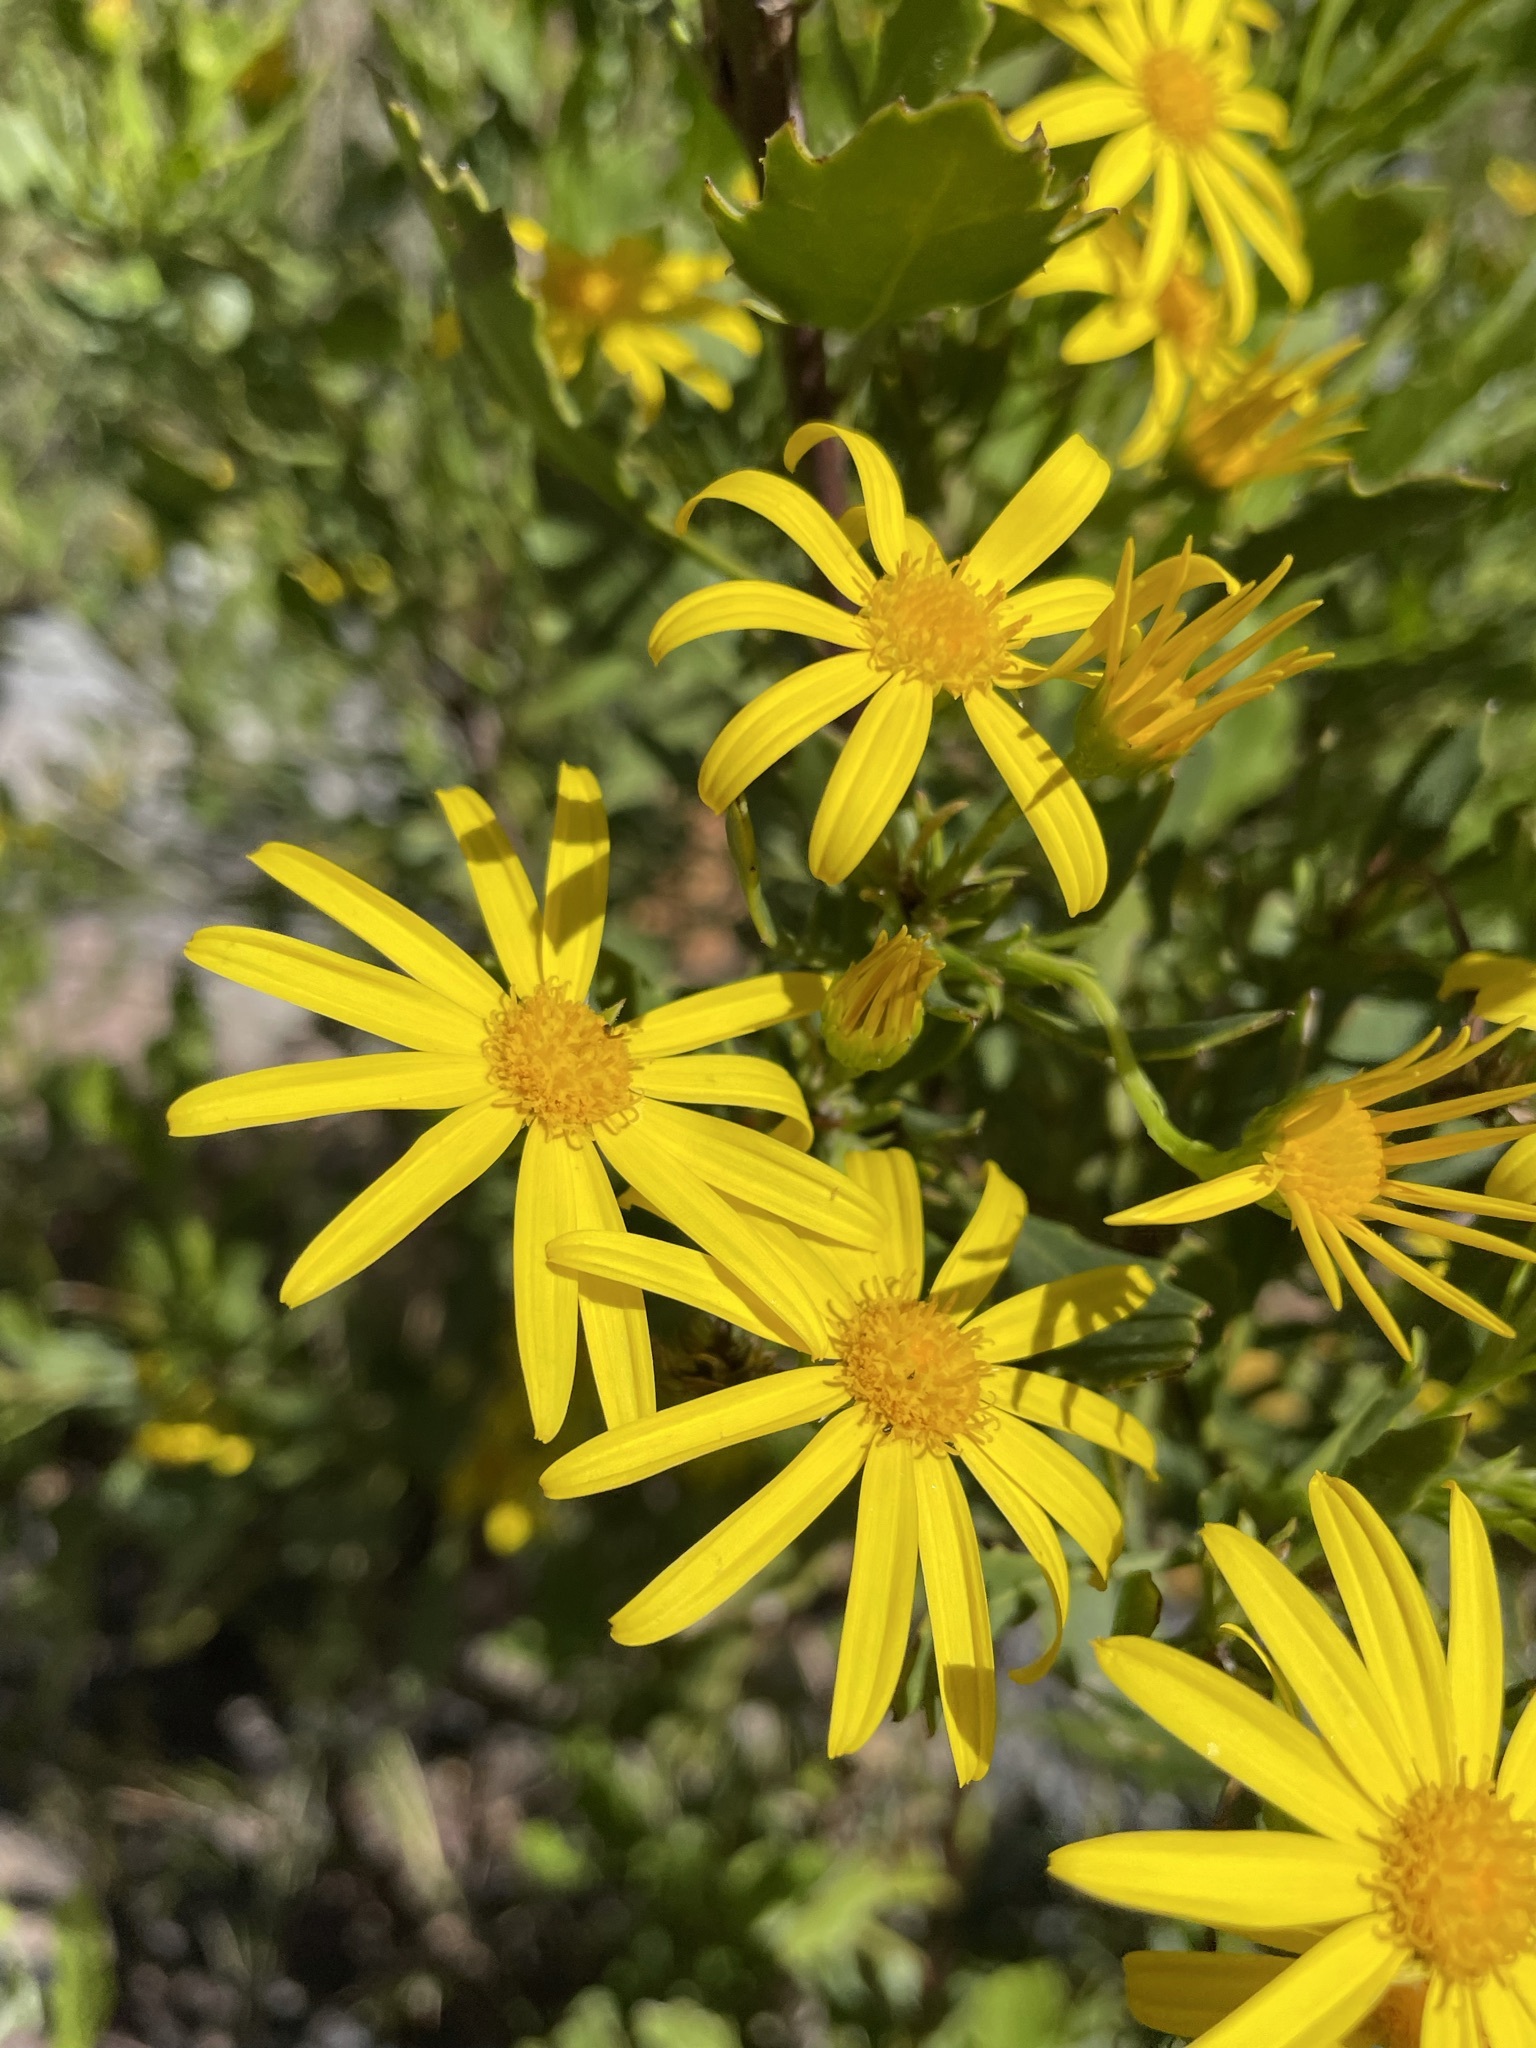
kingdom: Plantae
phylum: Tracheophyta
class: Magnoliopsida
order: Asterales
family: Asteraceae
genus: Osteospermum
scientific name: Osteospermum moniliferum
